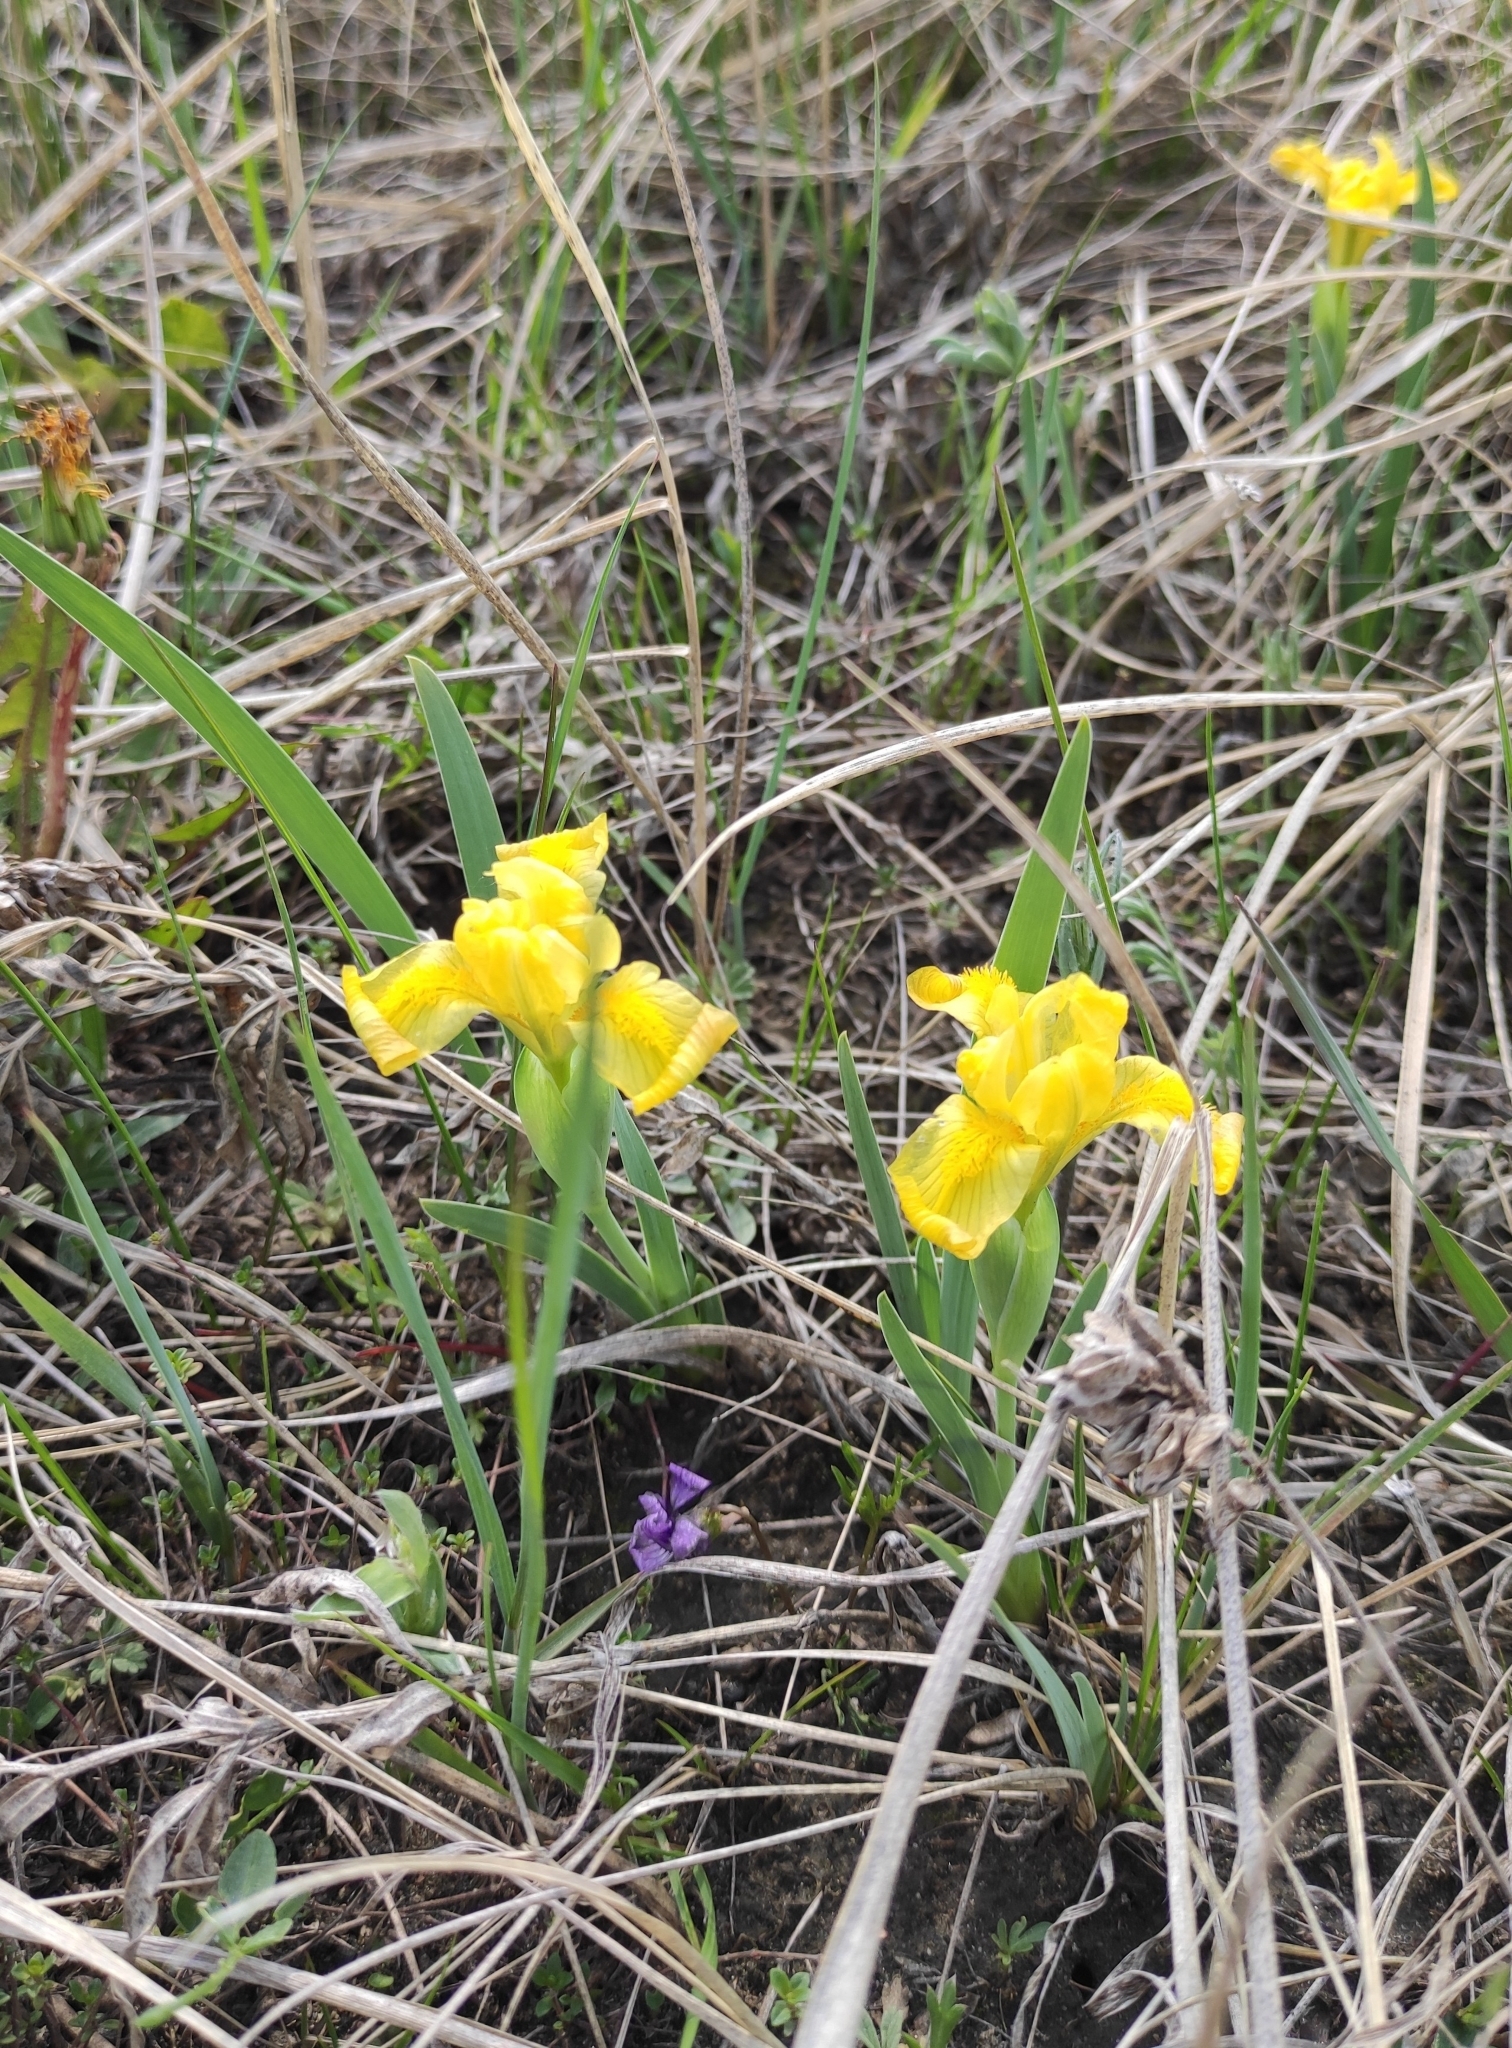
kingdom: Plantae
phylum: Tracheophyta
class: Liliopsida
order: Asparagales
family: Iridaceae
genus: Iris
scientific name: Iris humilis
